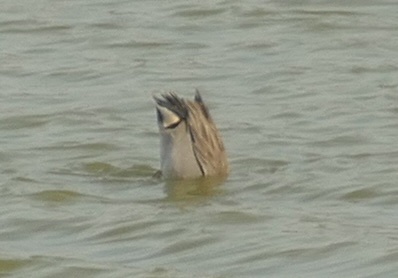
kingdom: Animalia
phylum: Chordata
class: Aves
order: Anseriformes
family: Anatidae
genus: Anas
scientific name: Anas crecca
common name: Eurasian teal
